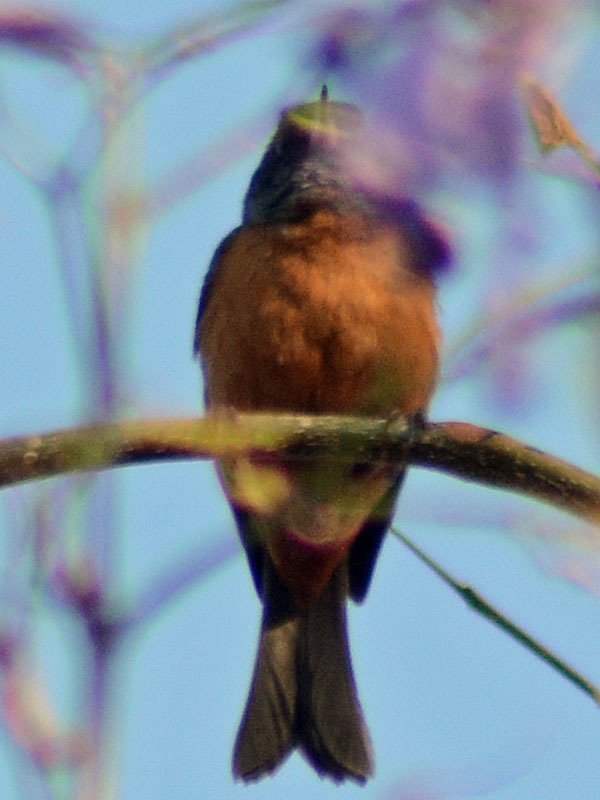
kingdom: Animalia
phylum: Chordata
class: Aves
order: Passeriformes
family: Thraupidae
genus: Diglossa
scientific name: Diglossa baritula
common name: Cinnamon-bellied flowerpiercer
